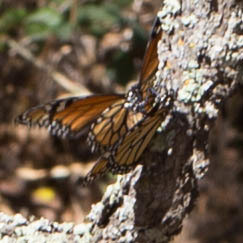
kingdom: Animalia
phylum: Arthropoda
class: Insecta
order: Lepidoptera
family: Nymphalidae
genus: Danaus
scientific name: Danaus plexippus
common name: Monarch
